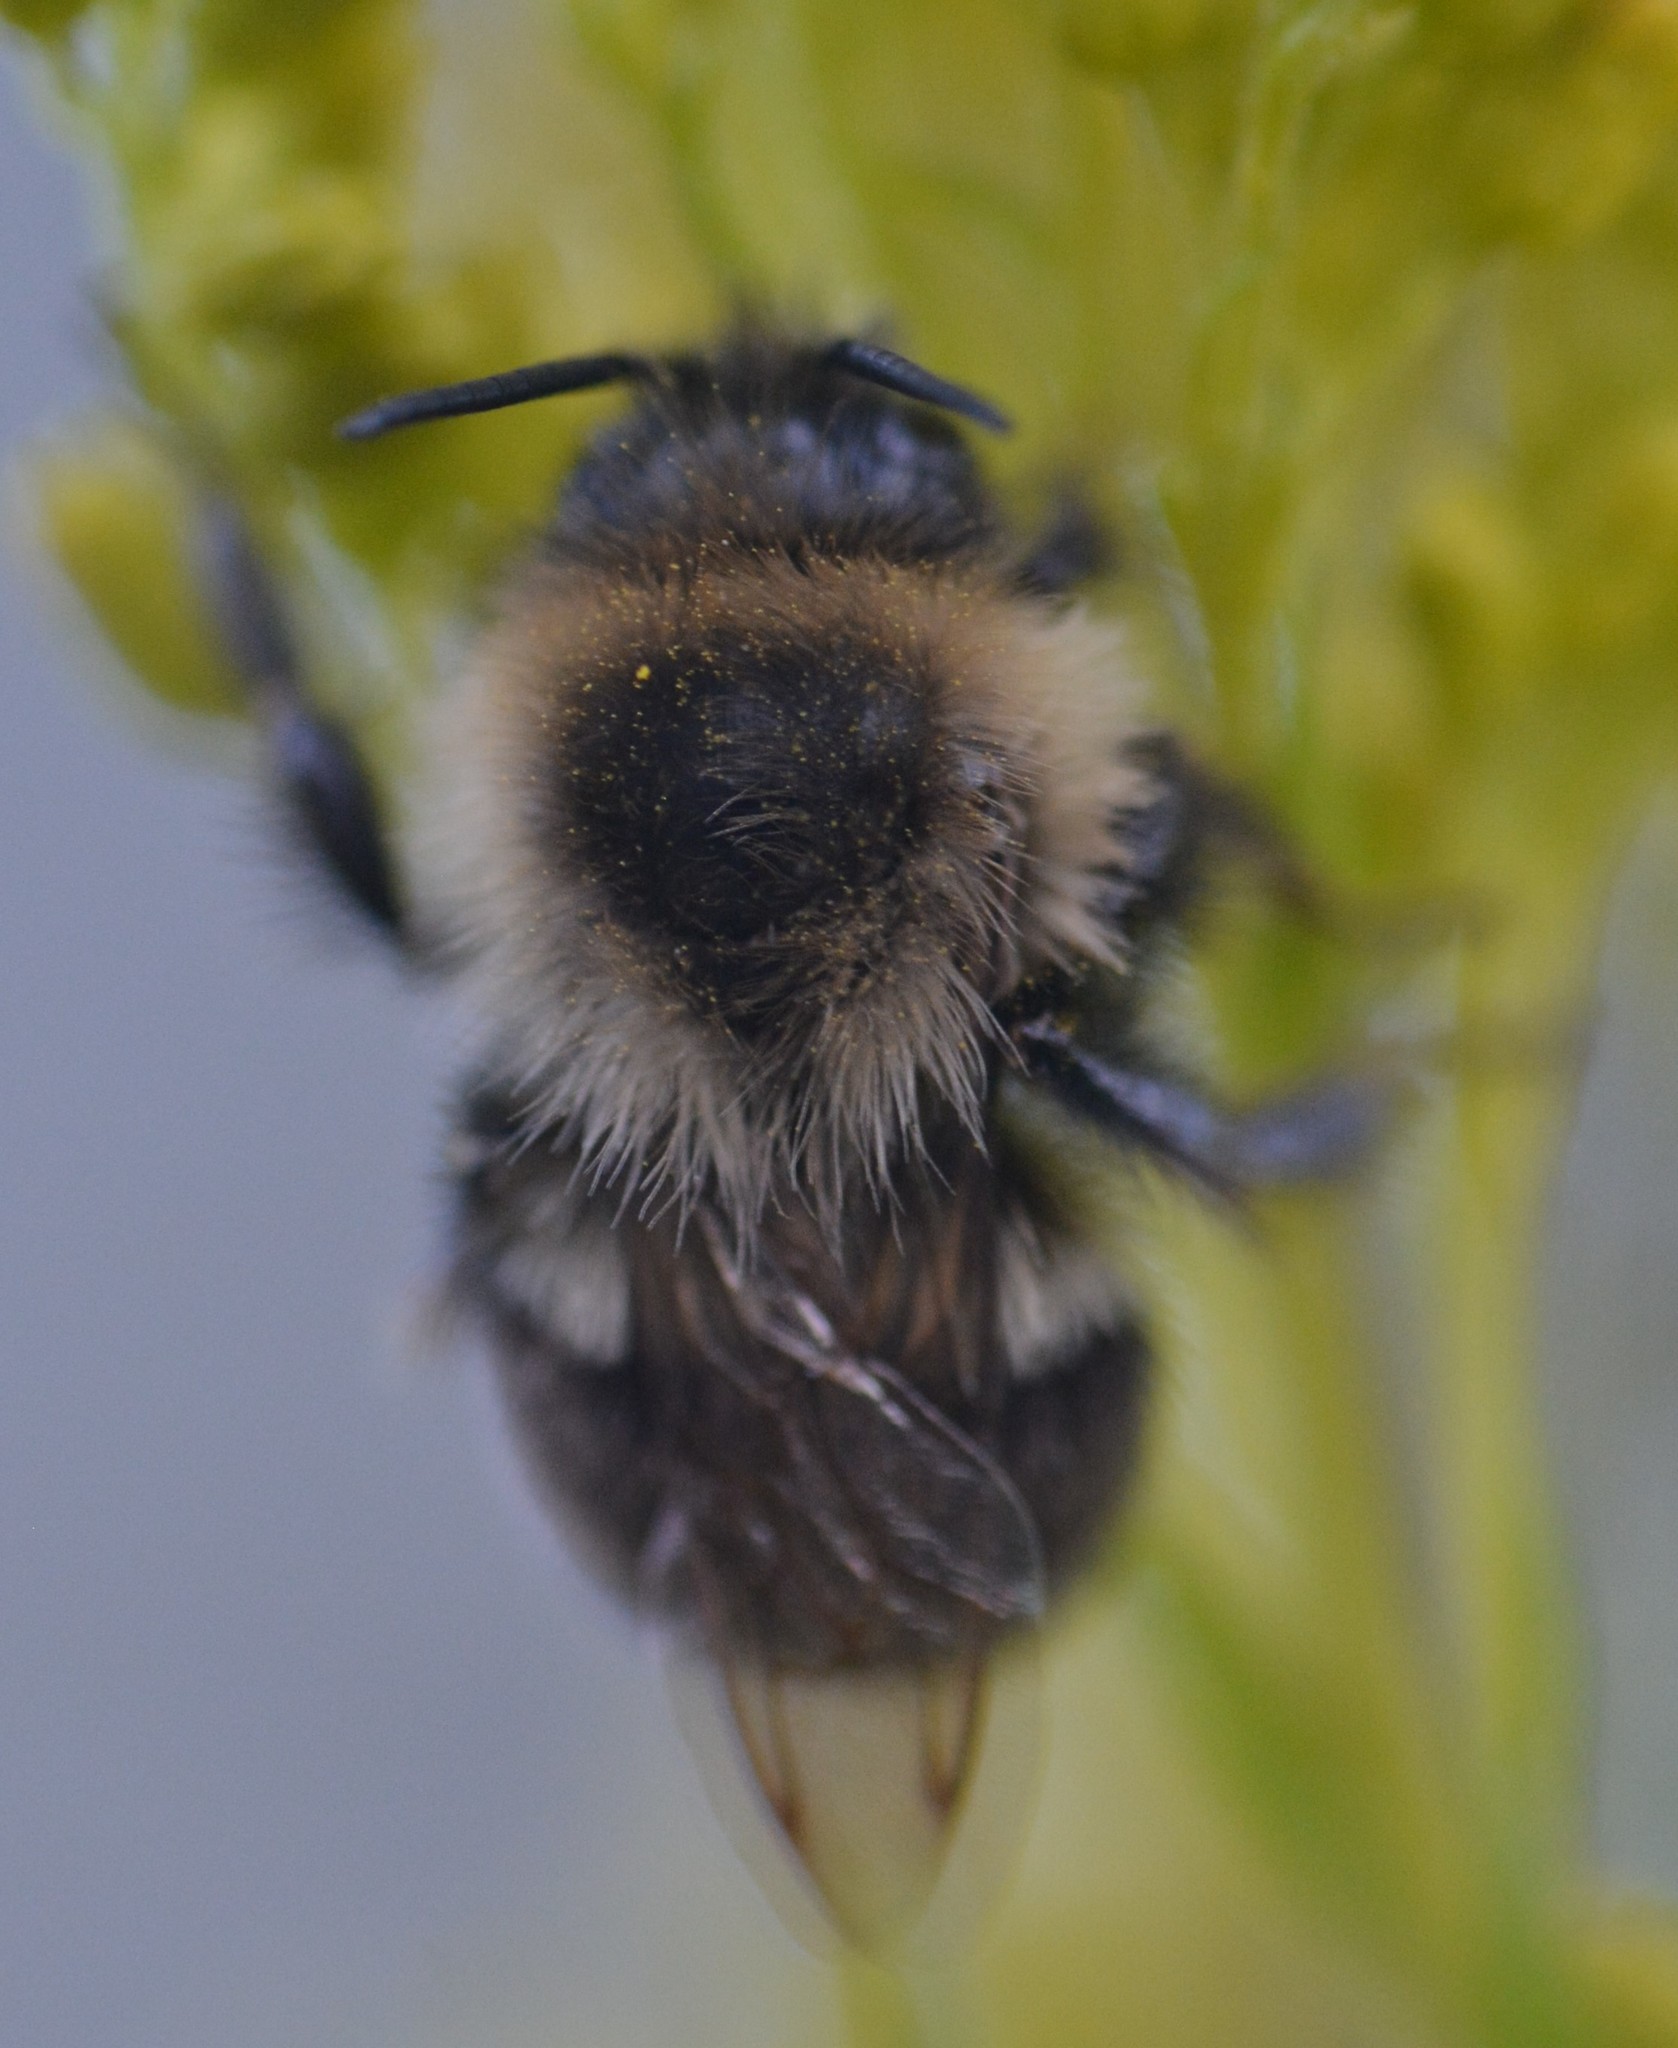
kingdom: Animalia
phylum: Arthropoda
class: Insecta
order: Hymenoptera
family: Apidae
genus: Bombus
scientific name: Bombus impatiens
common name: Common eastern bumble bee
